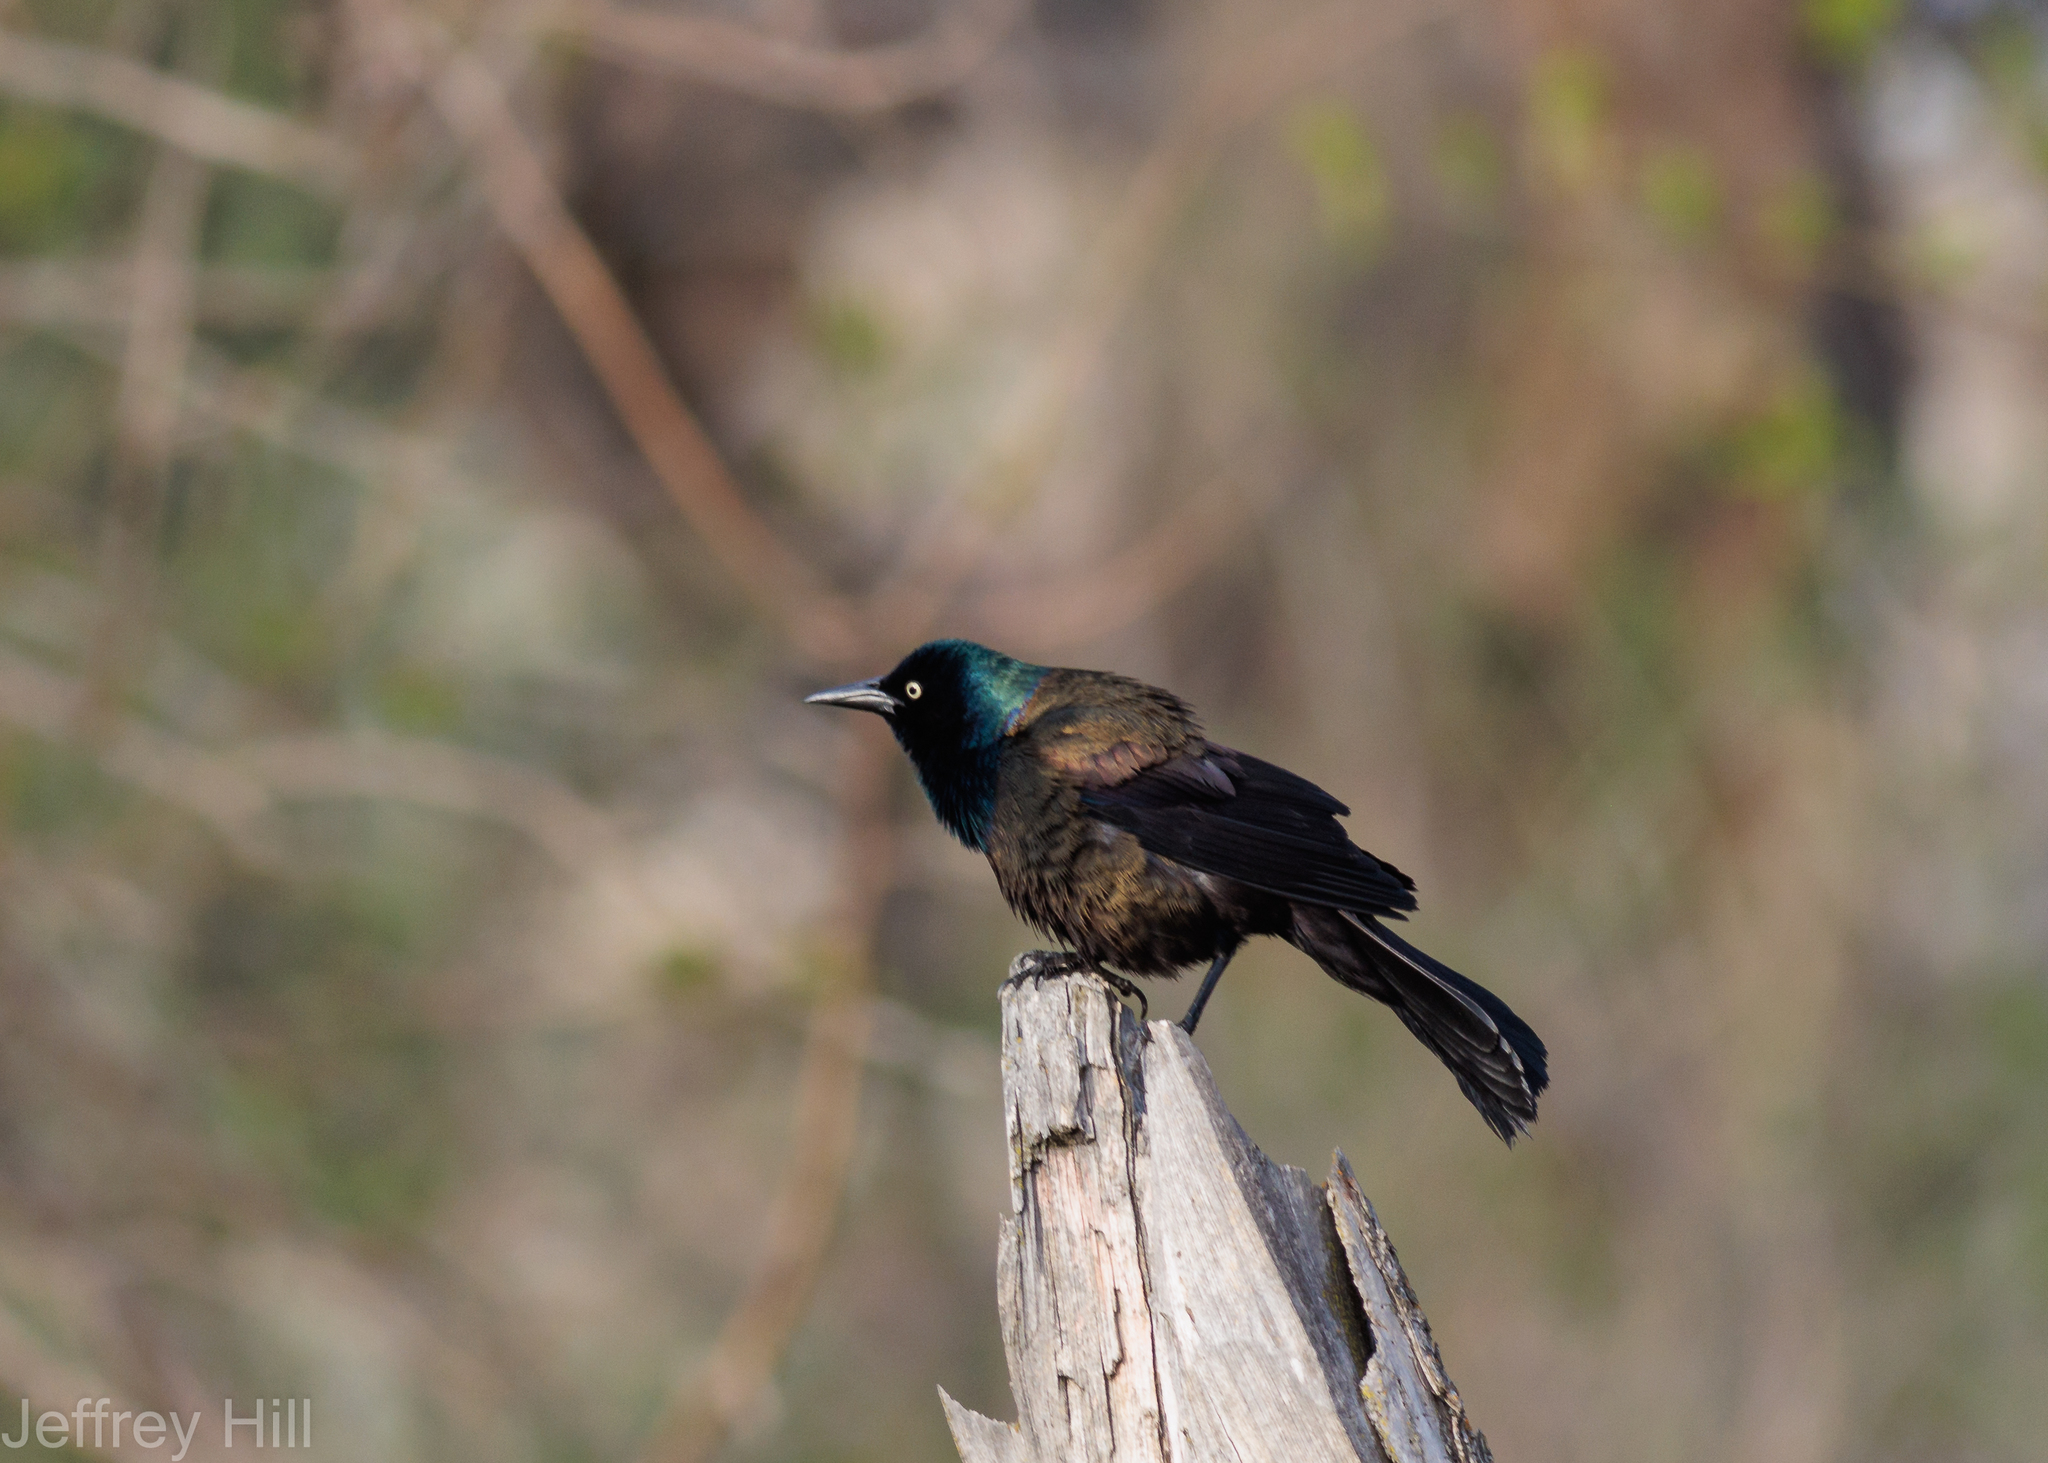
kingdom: Animalia
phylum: Chordata
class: Aves
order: Passeriformes
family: Icteridae
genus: Quiscalus
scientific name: Quiscalus quiscula
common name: Common grackle
